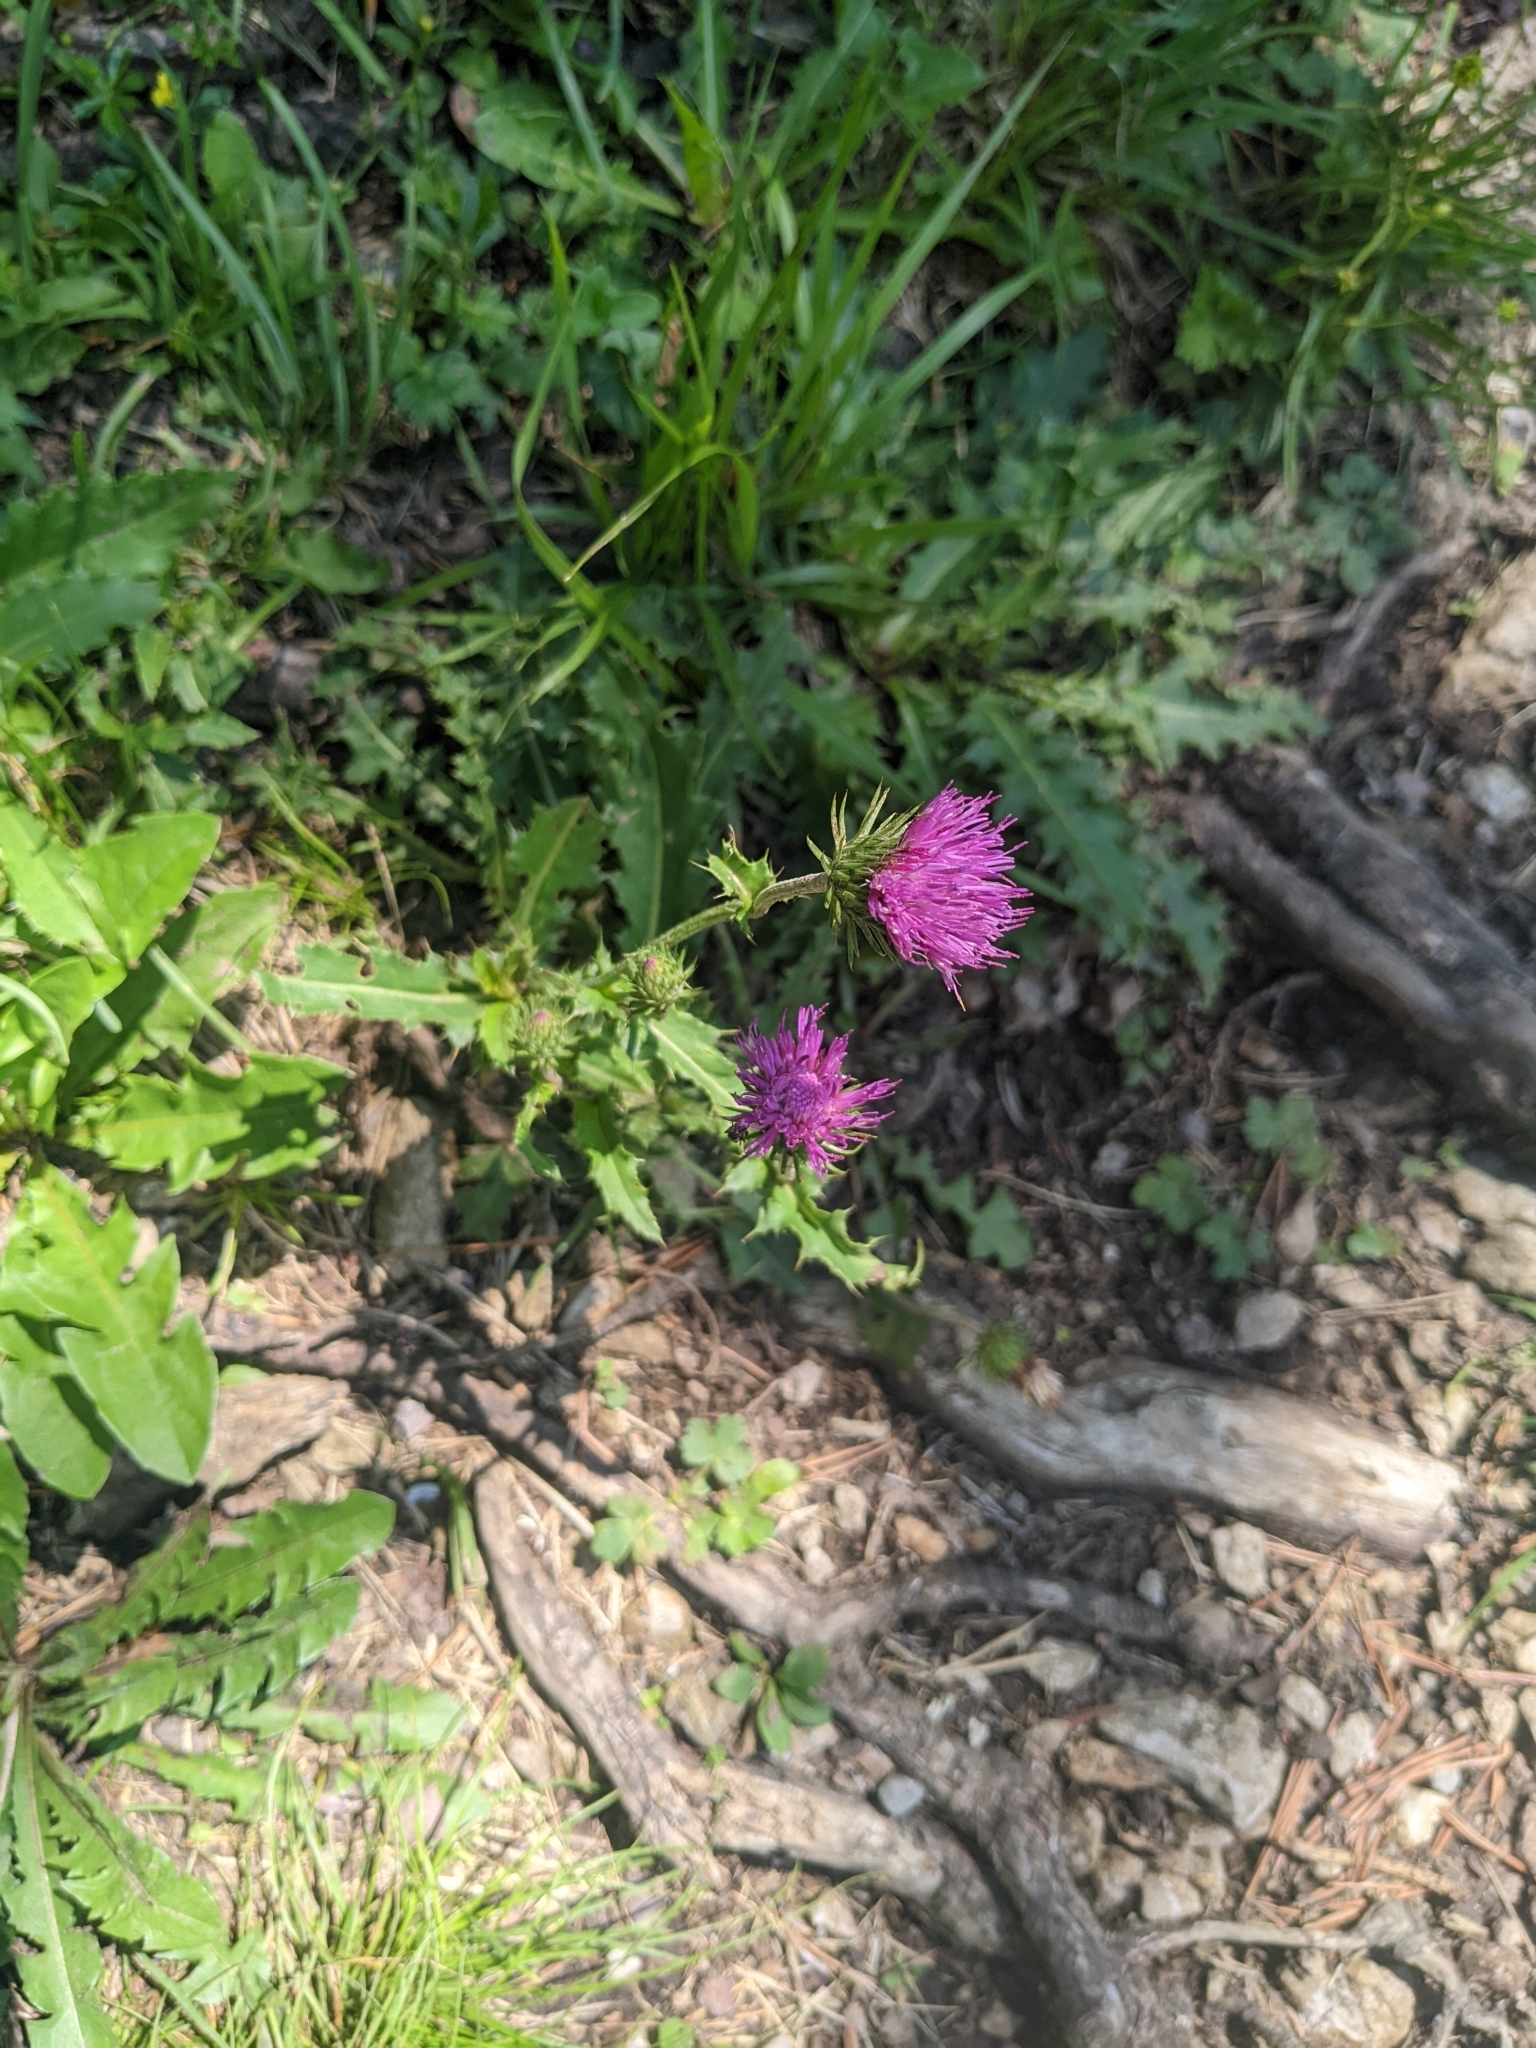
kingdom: Plantae
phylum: Tracheophyta
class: Magnoliopsida
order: Asterales
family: Asteraceae
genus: Carduus
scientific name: Carduus defloratus
